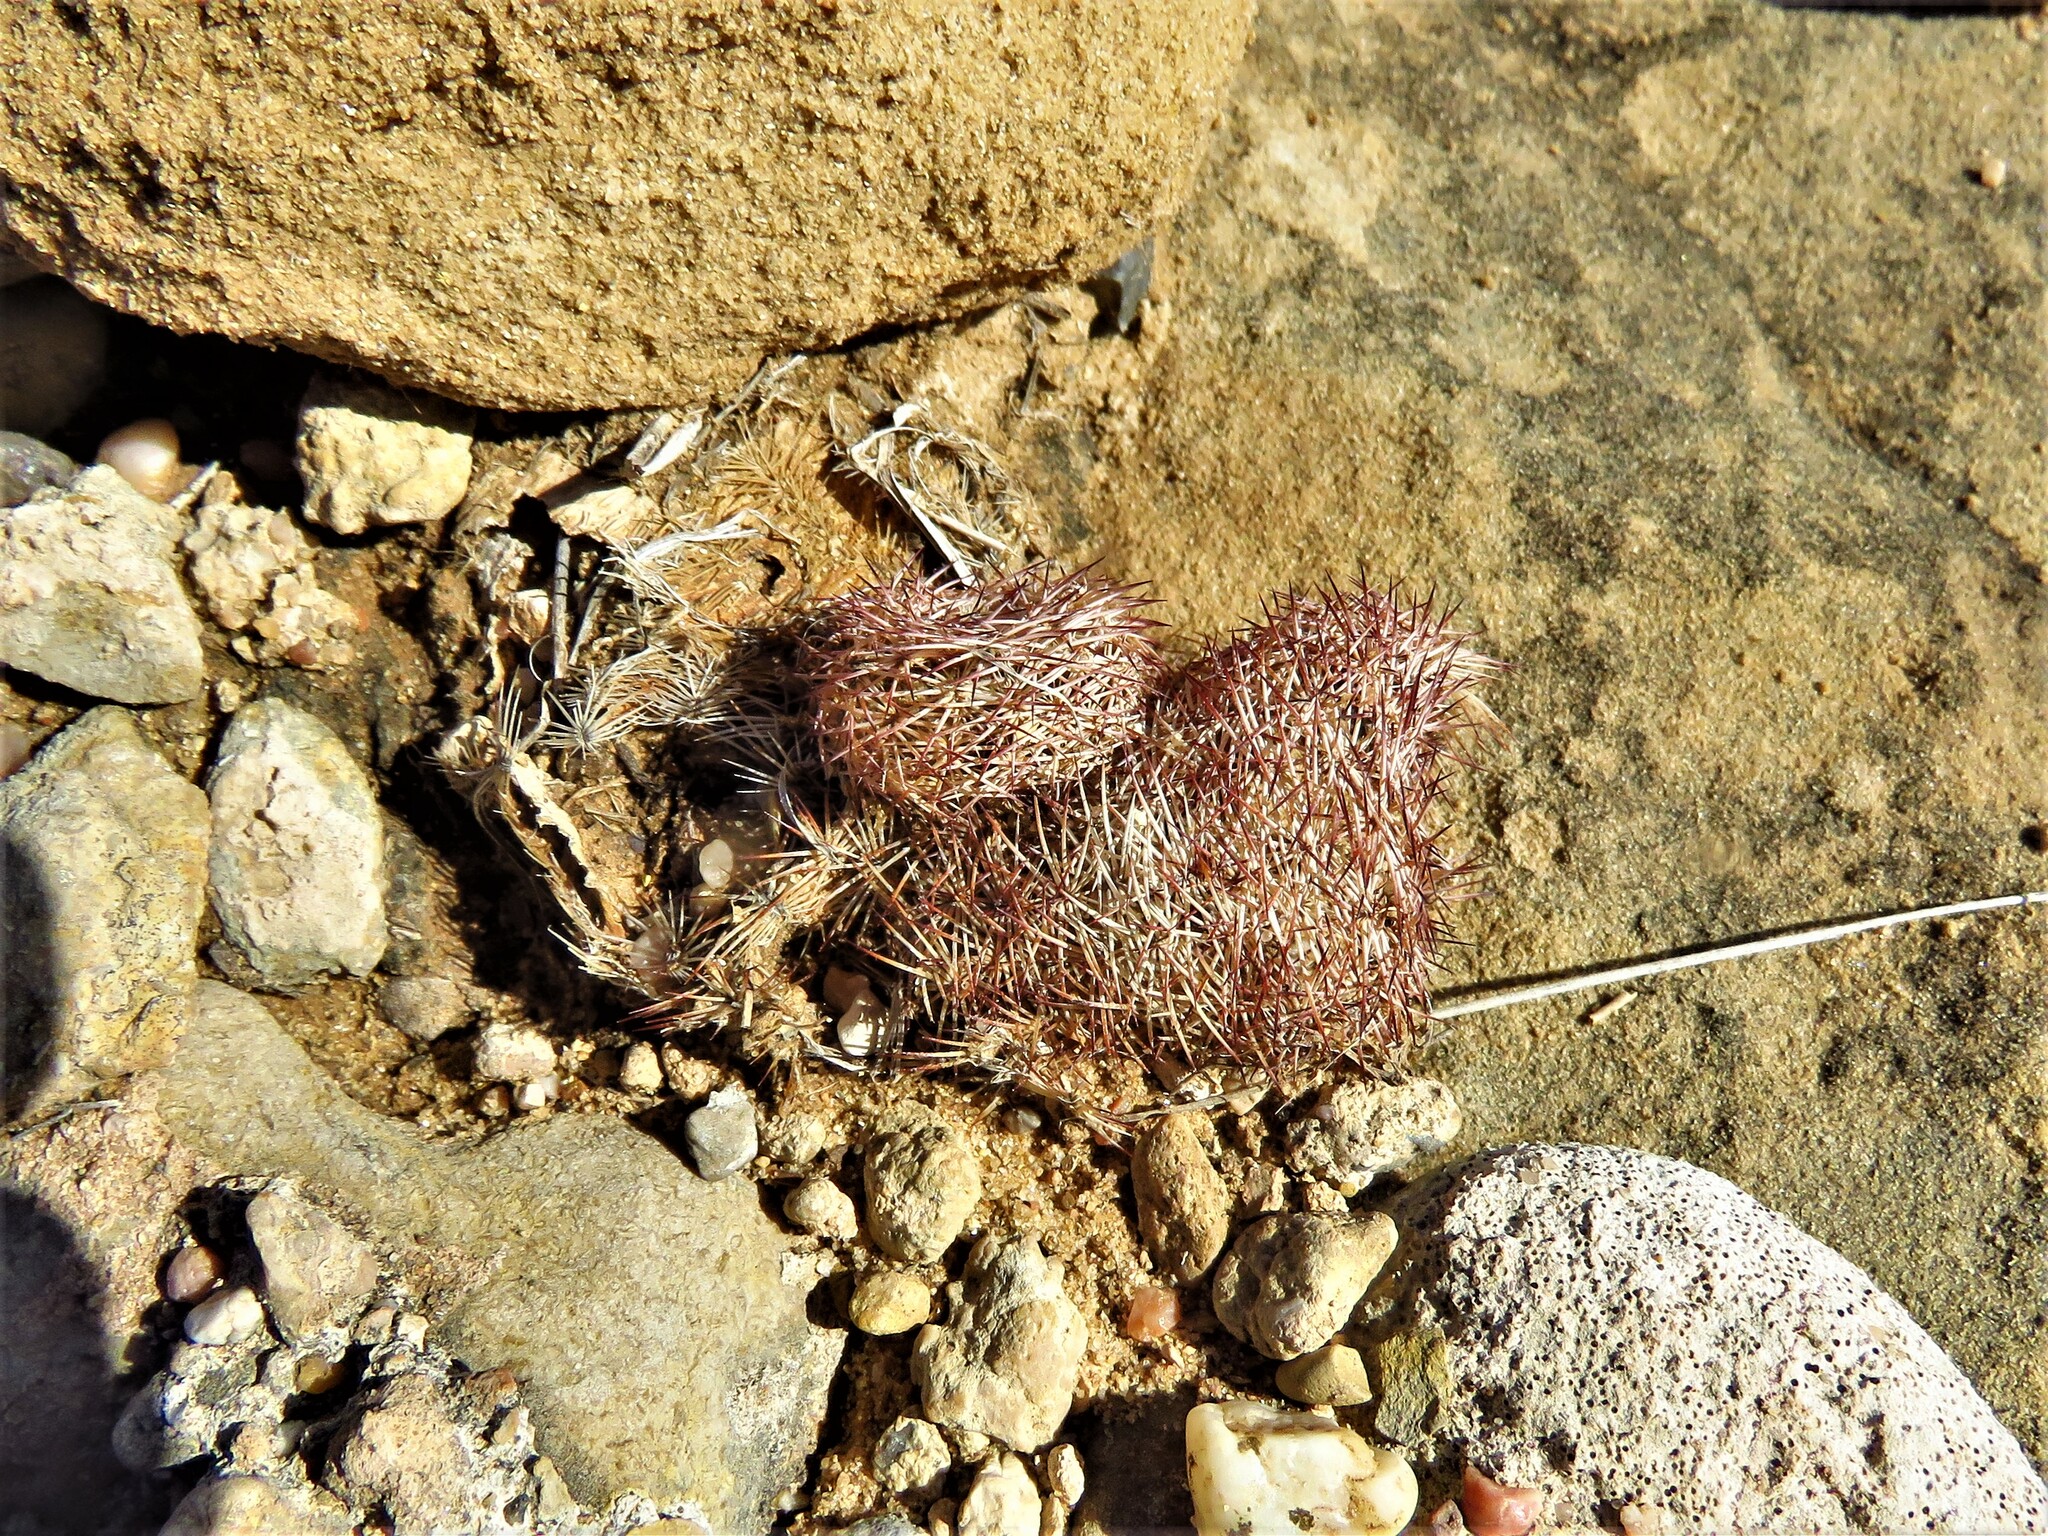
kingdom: Plantae
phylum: Tracheophyta
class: Magnoliopsida
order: Caryophyllales
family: Cactaceae
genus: Echinocereus
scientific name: Echinocereus reichenbachii
